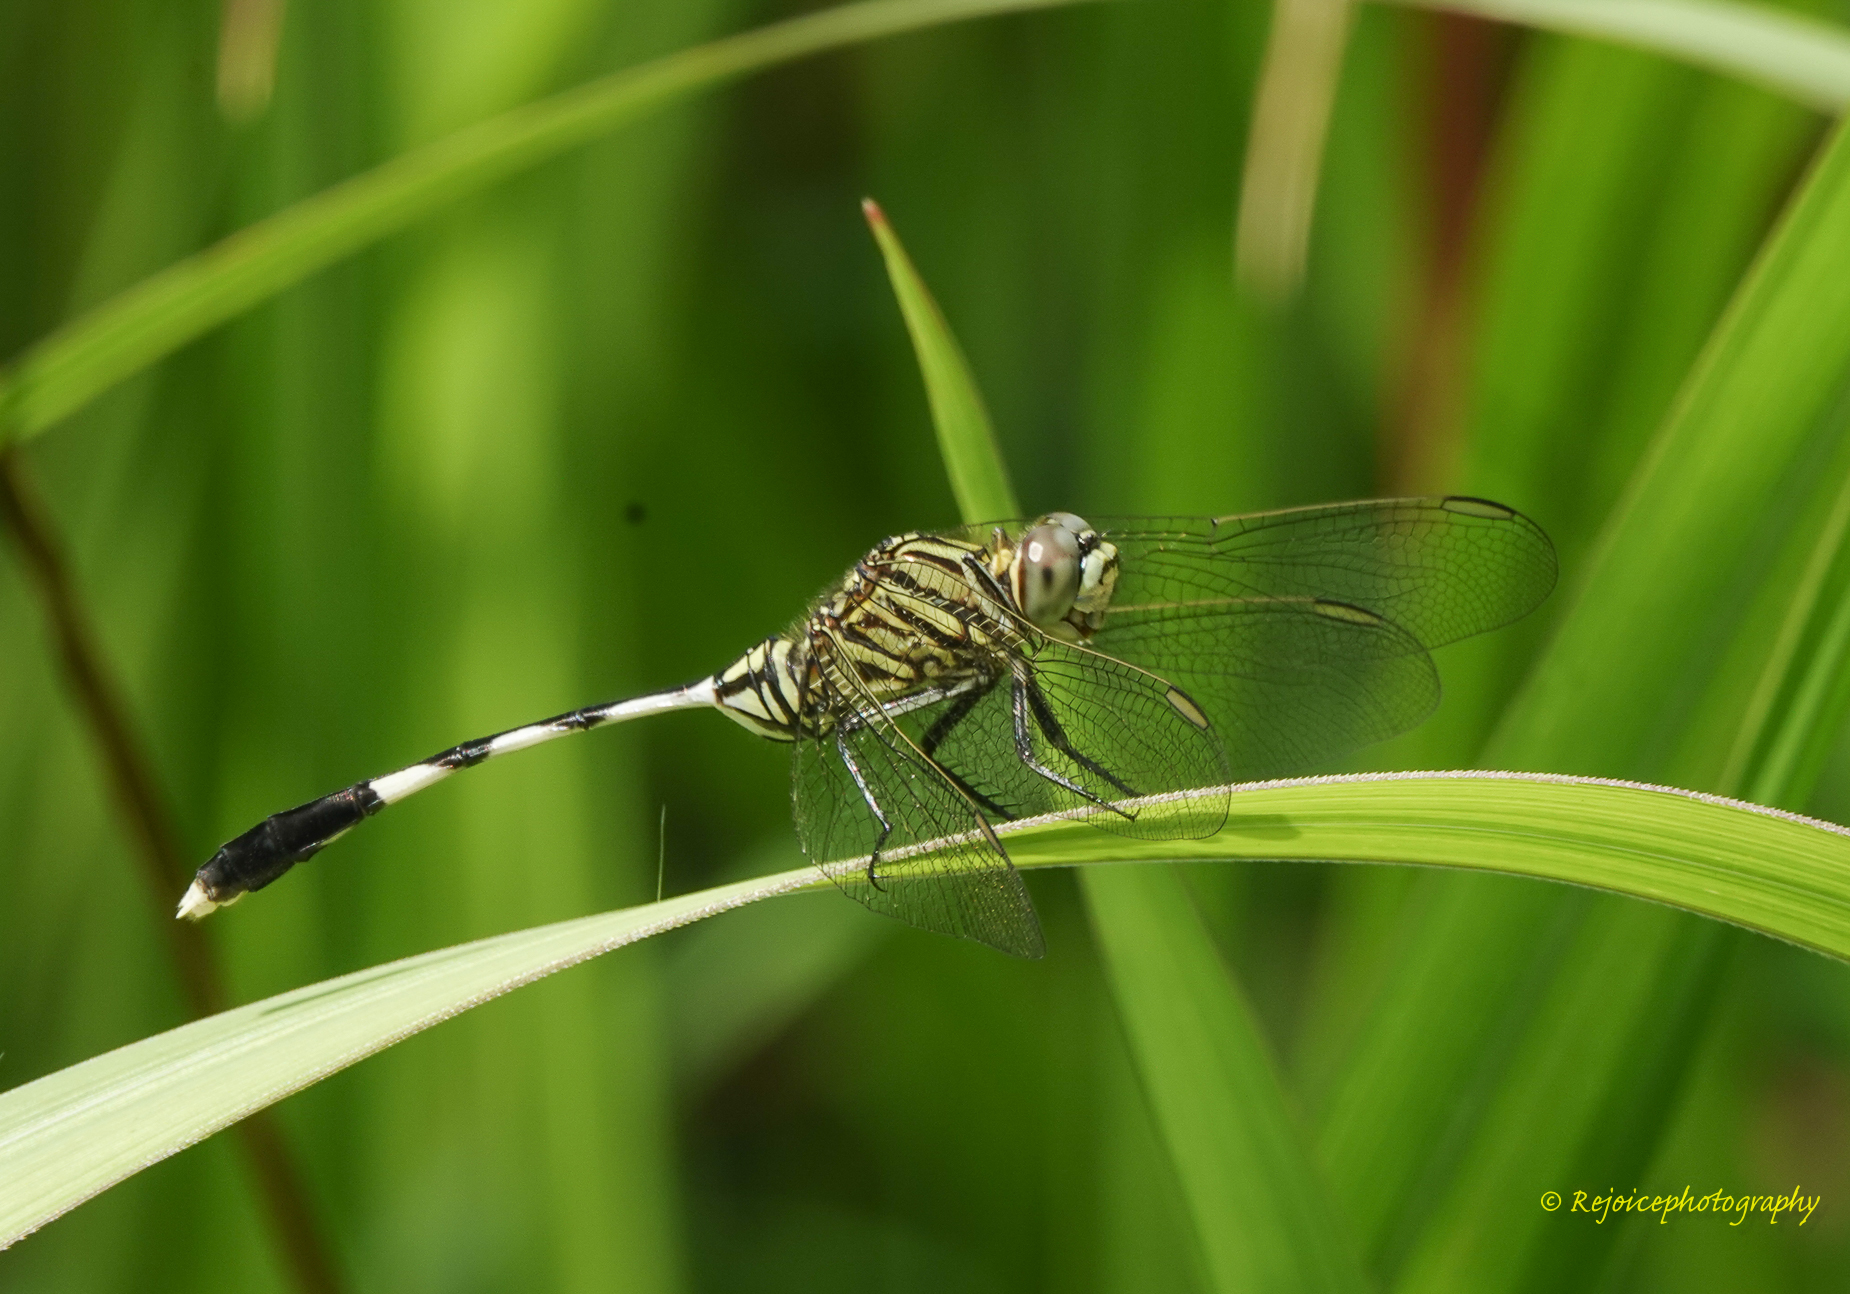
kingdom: Animalia
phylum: Arthropoda
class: Insecta
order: Odonata
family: Libellulidae
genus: Orthetrum
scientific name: Orthetrum sabina
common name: Slender skimmer
